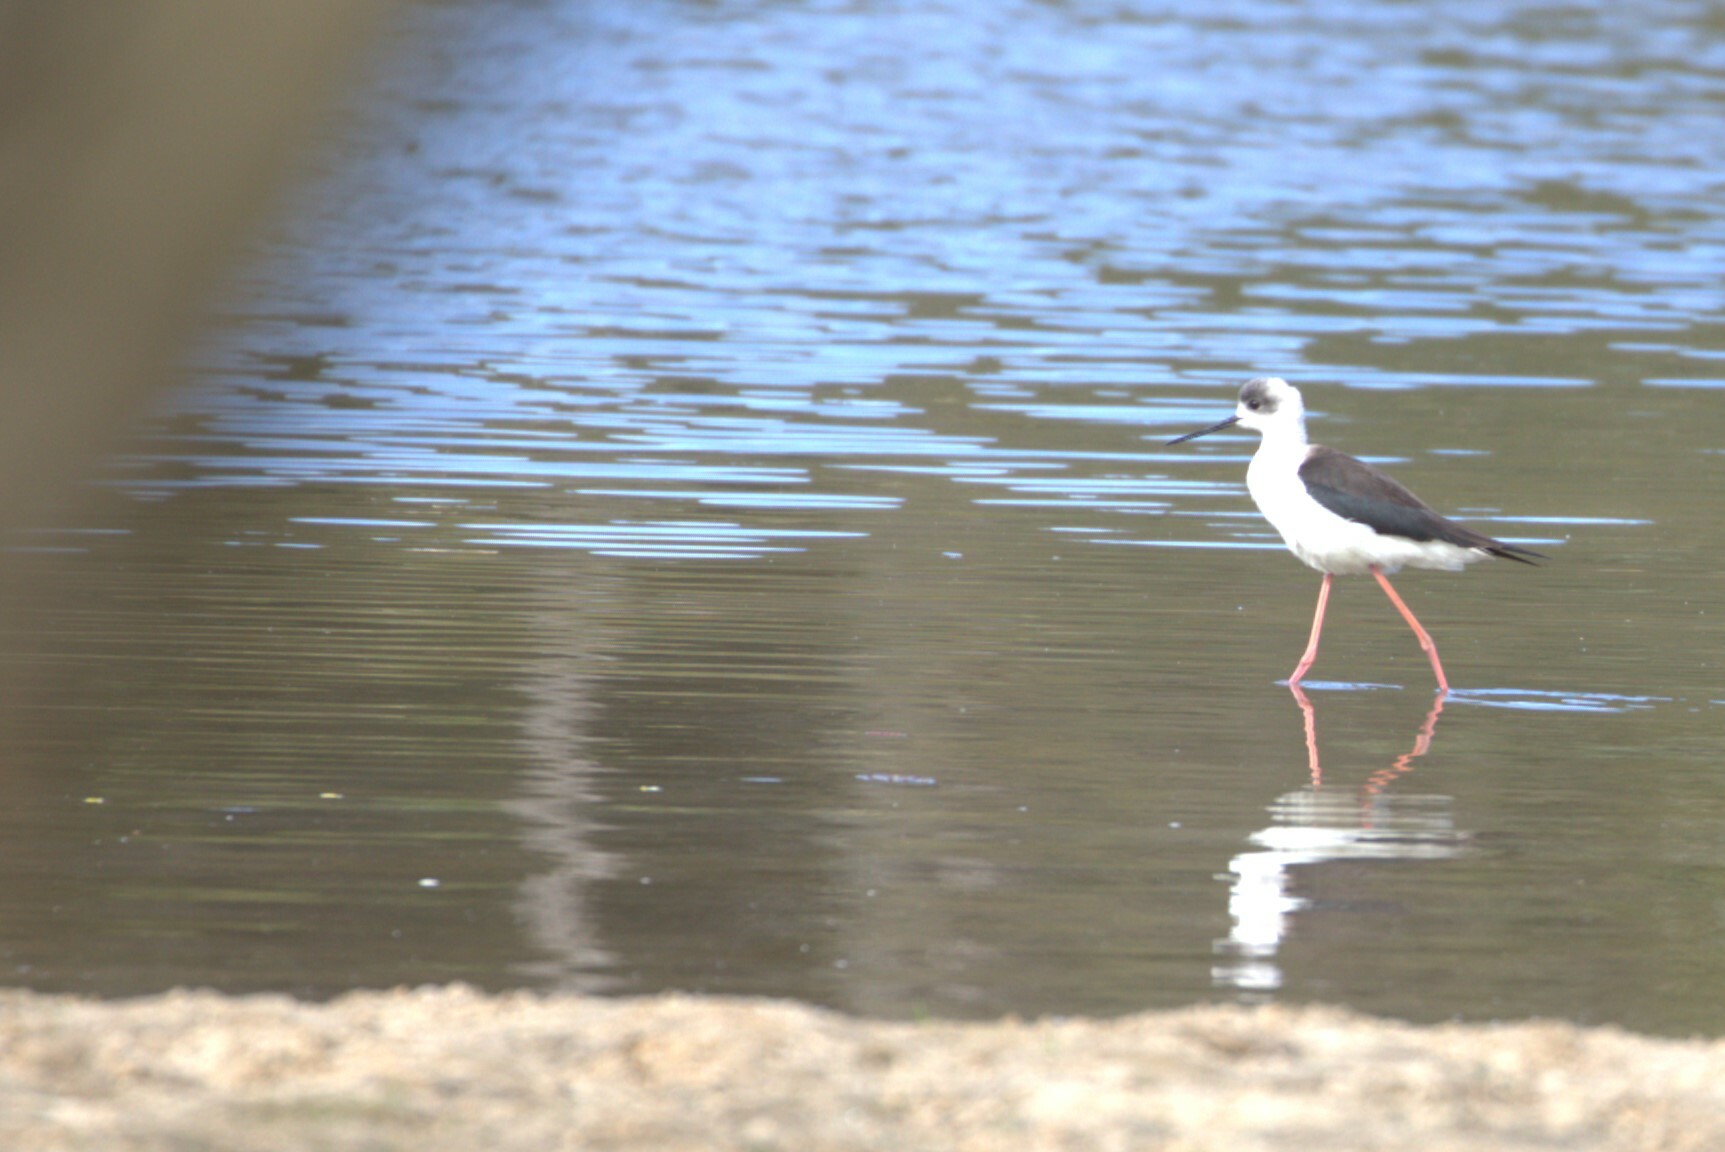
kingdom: Animalia
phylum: Chordata
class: Aves
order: Charadriiformes
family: Recurvirostridae
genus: Himantopus
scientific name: Himantopus leucocephalus
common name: White-headed stilt
